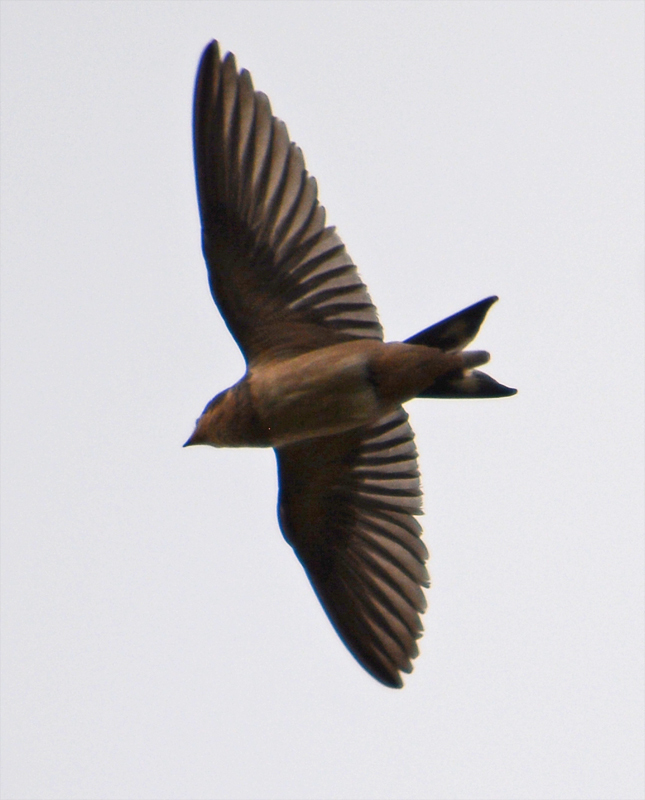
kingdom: Animalia
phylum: Chordata
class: Aves
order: Passeriformes
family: Hirundinidae
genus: Hirundo
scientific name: Hirundo rustica
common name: Barn swallow
